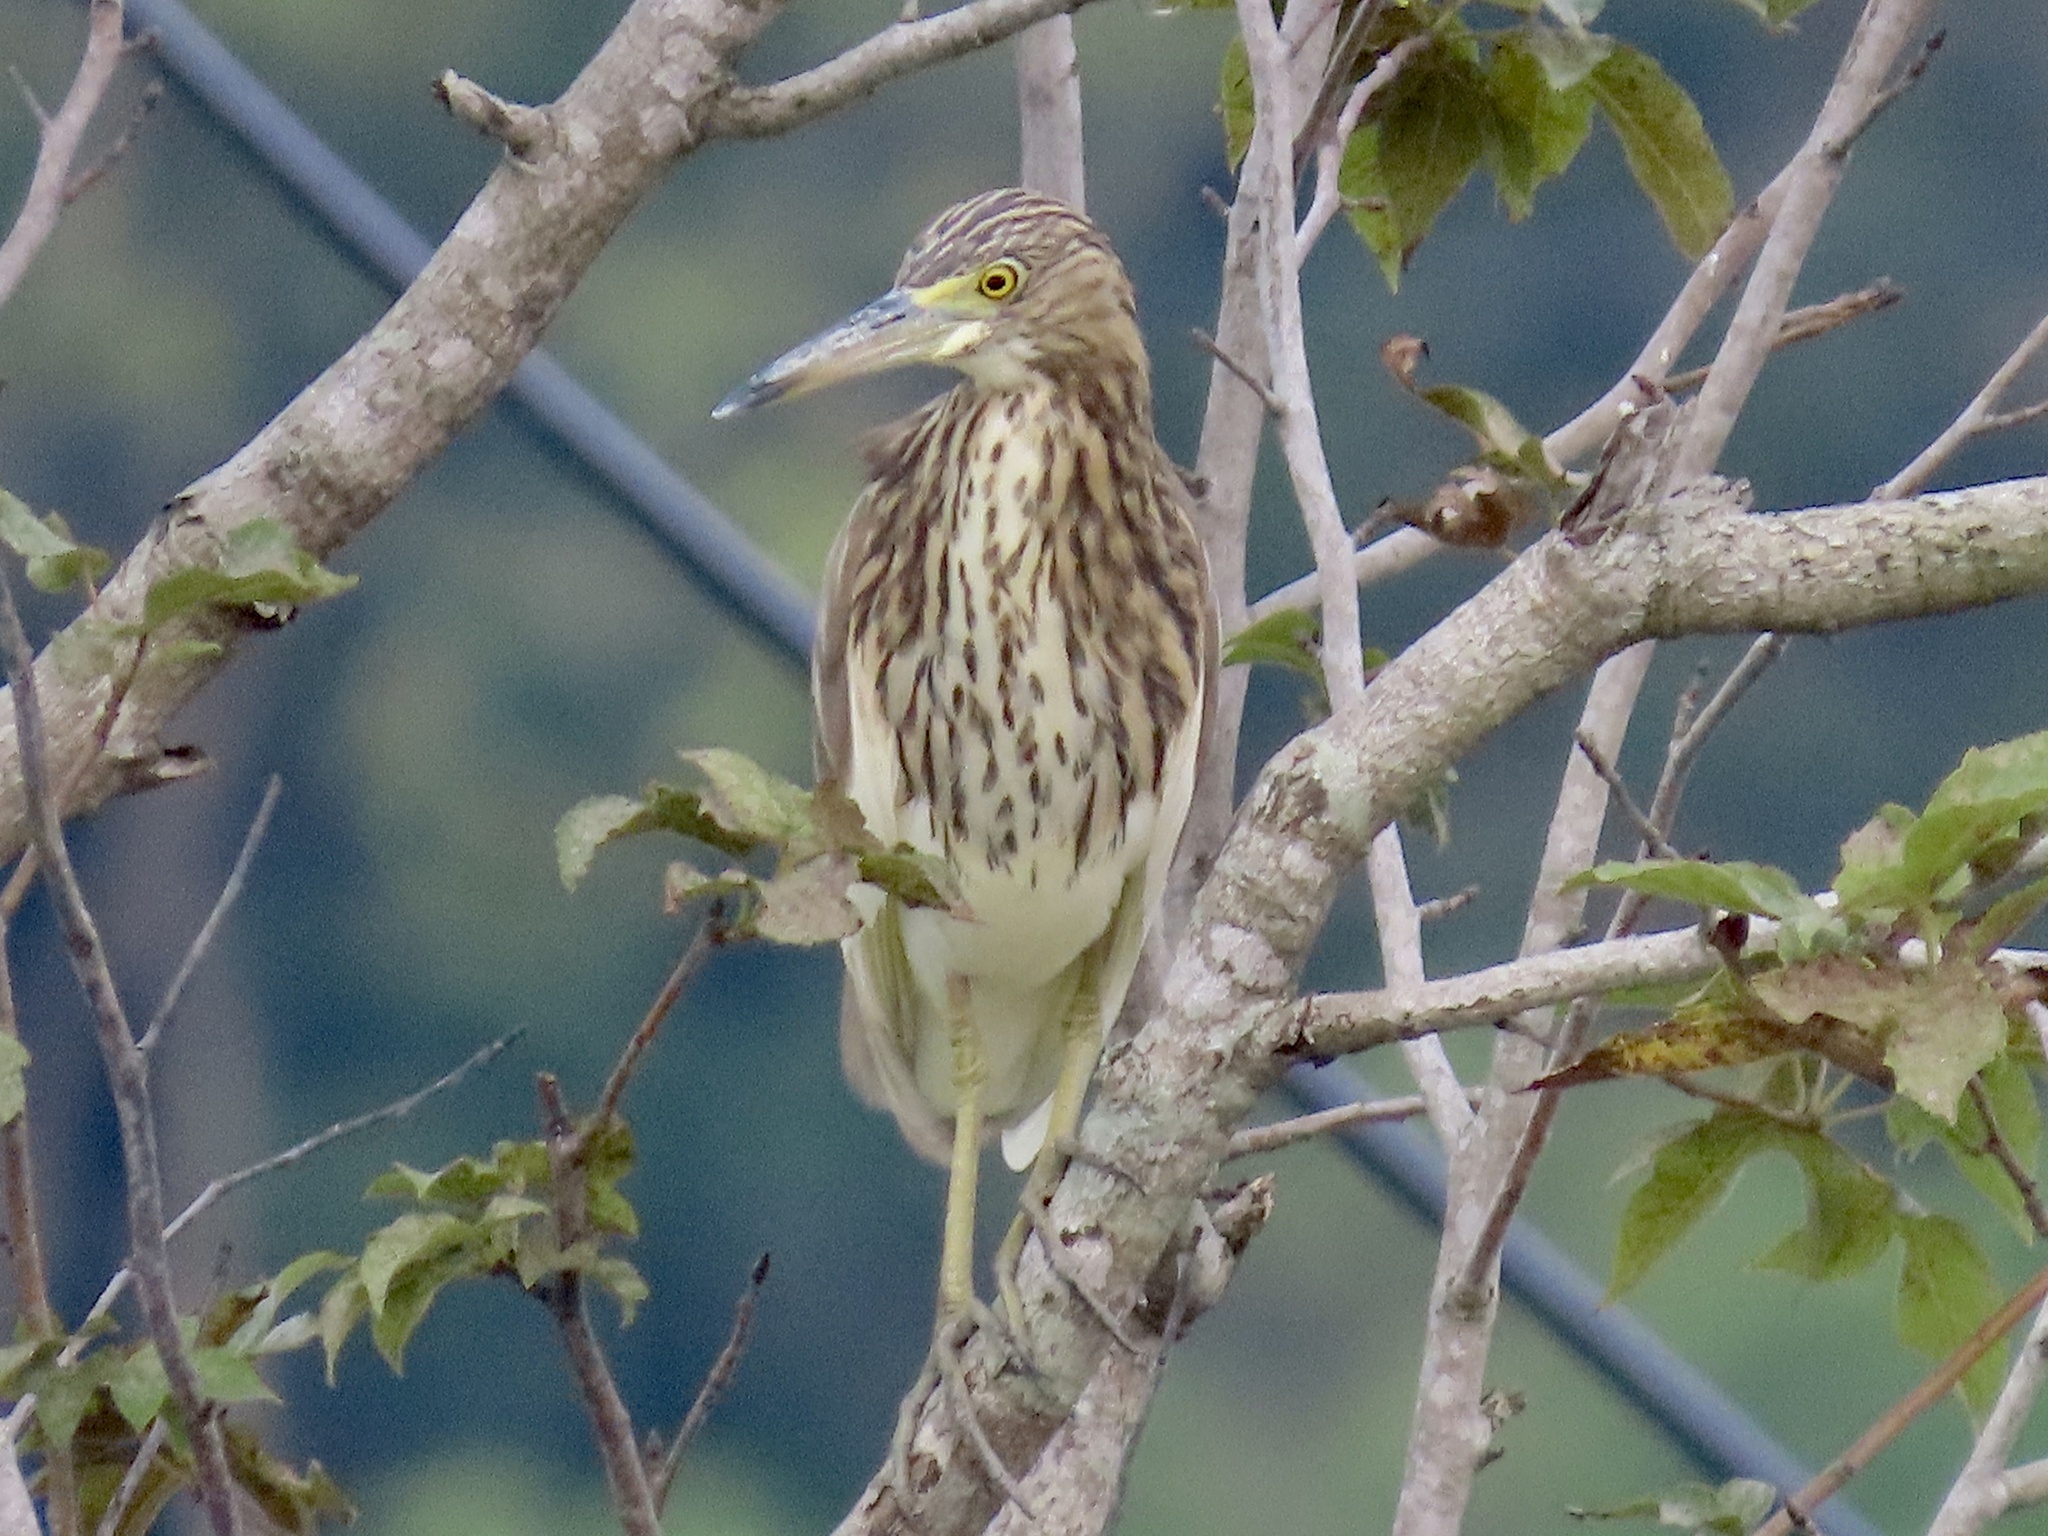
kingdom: Animalia
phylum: Chordata
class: Aves
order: Pelecaniformes
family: Ardeidae
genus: Ardeola
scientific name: Ardeola bacchus
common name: Chinese pond heron
